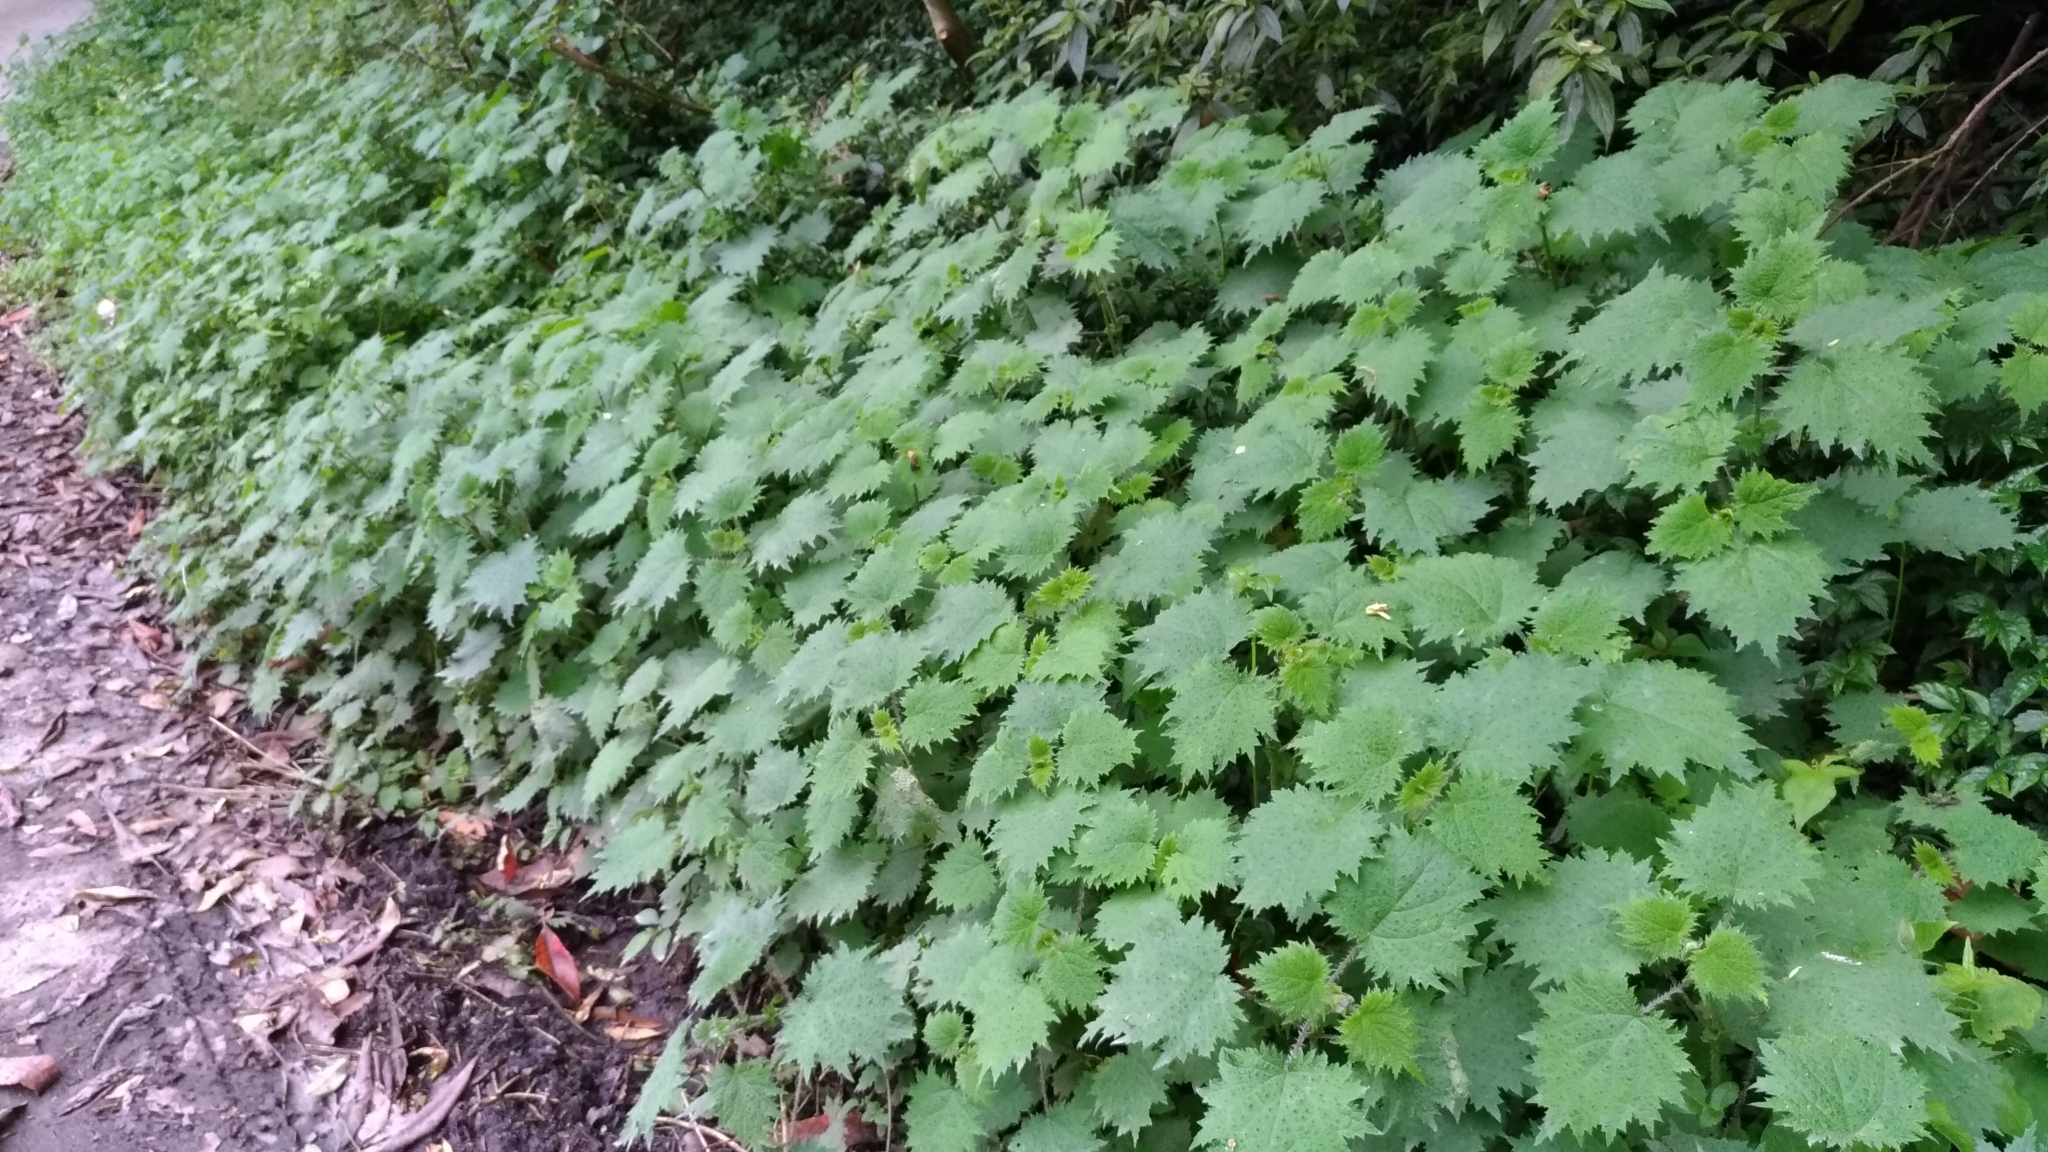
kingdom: Plantae
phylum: Tracheophyta
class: Magnoliopsida
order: Rosales
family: Urticaceae
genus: Urtica
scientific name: Urtica thunbergiana
